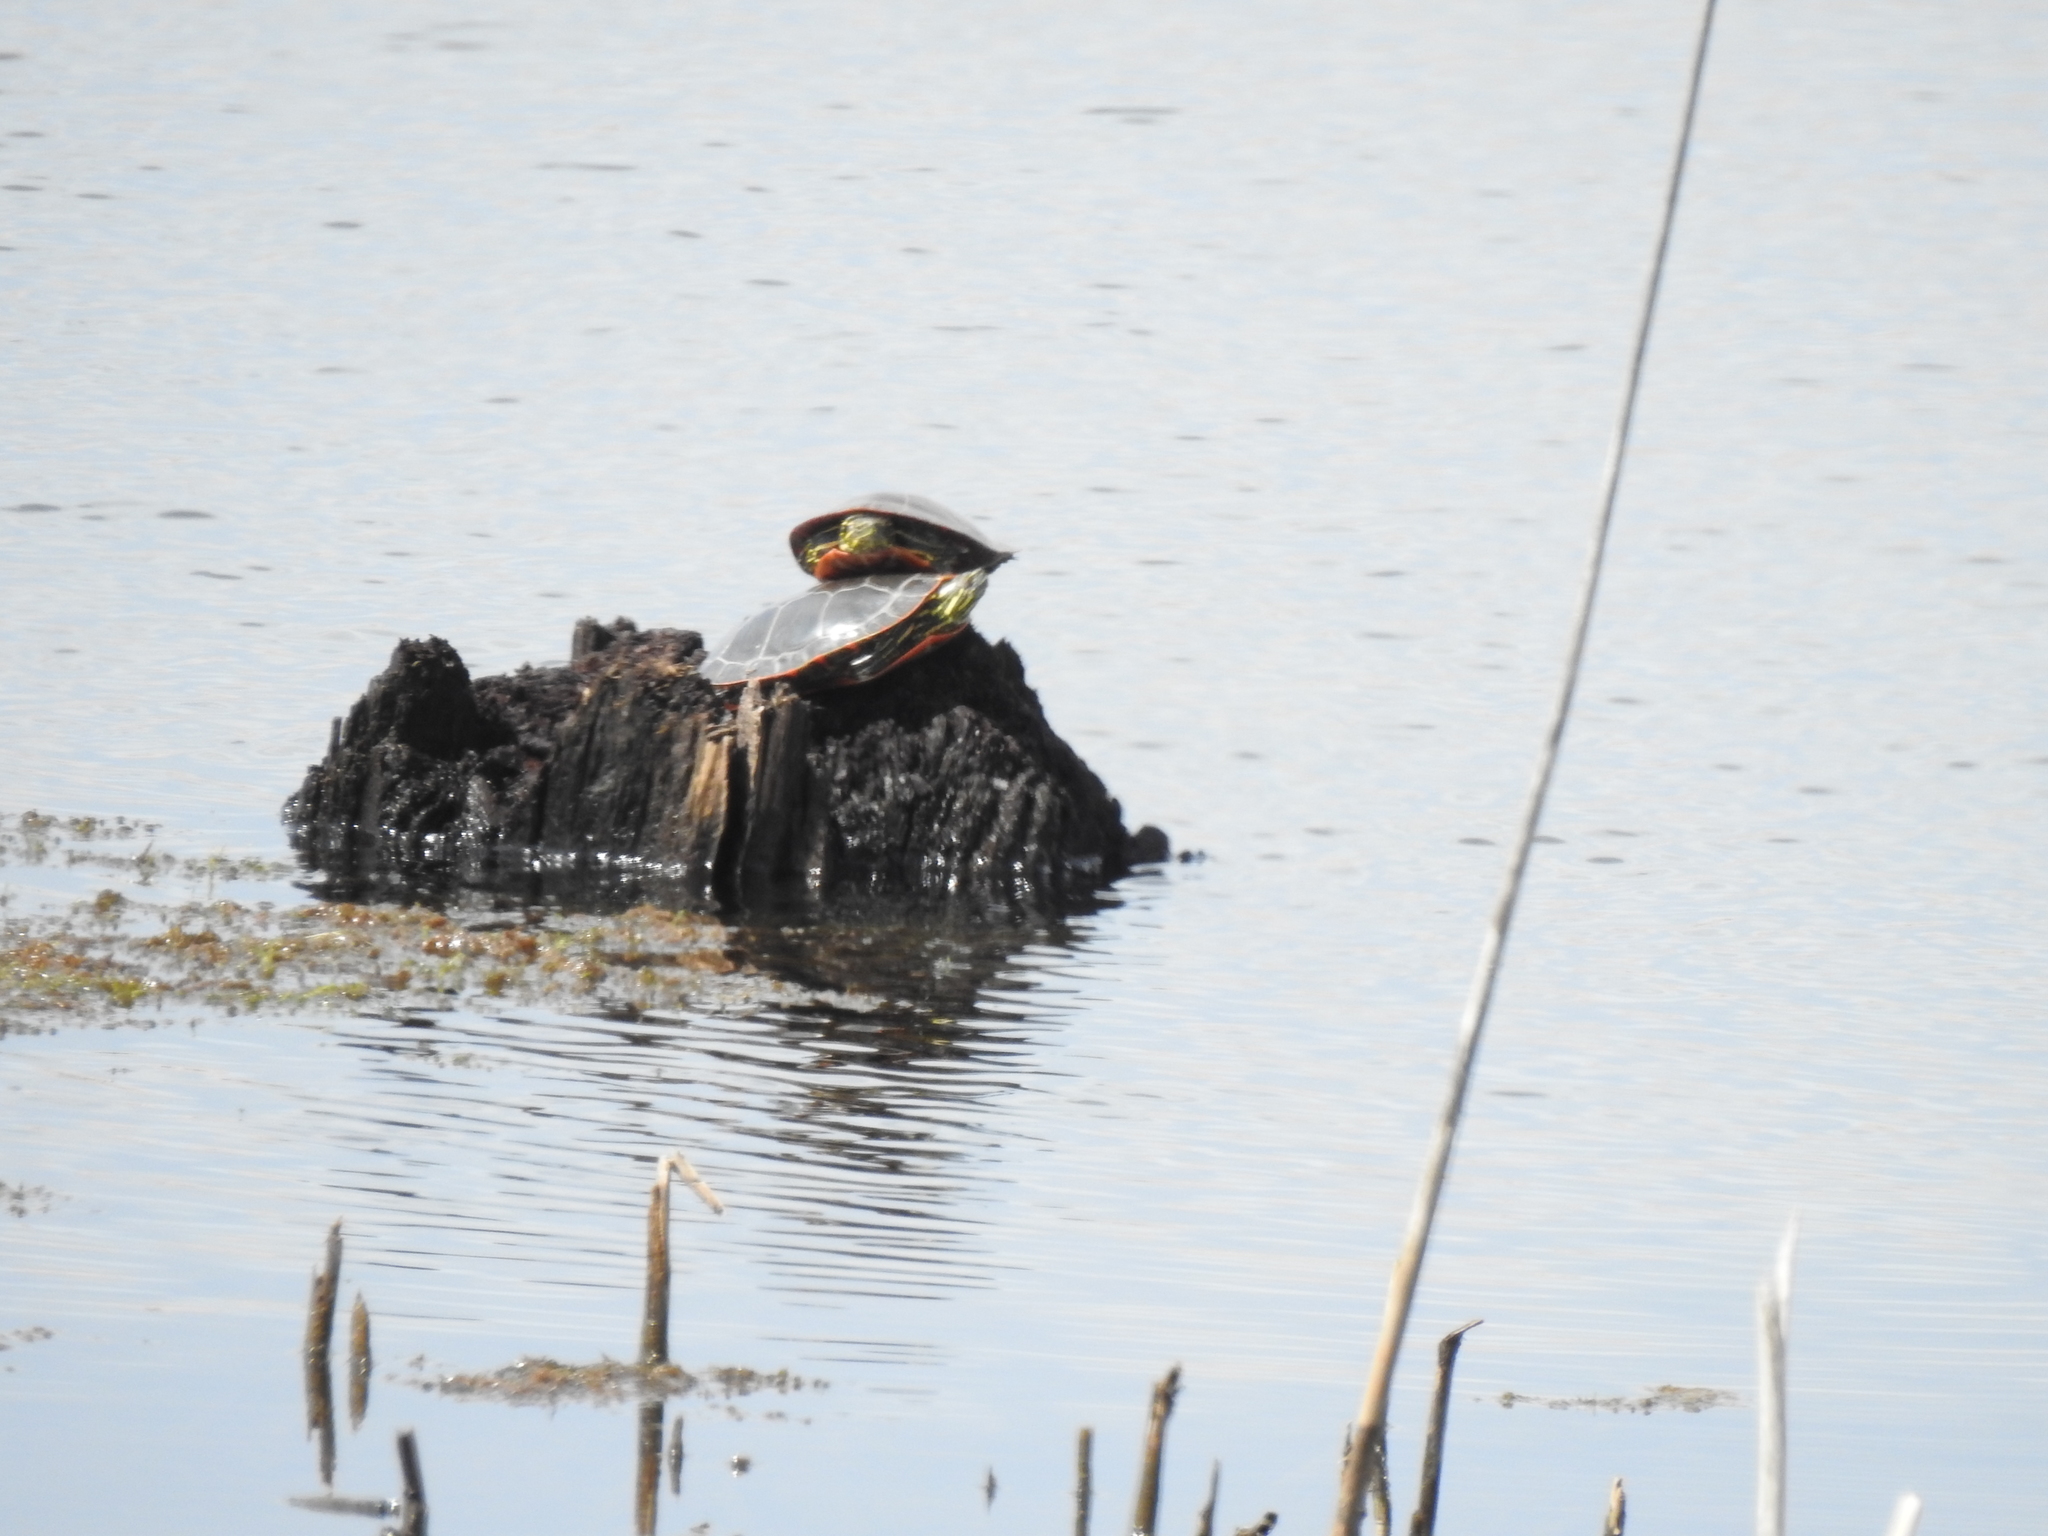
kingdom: Animalia
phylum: Chordata
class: Testudines
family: Emydidae
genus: Chrysemys
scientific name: Chrysemys picta
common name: Painted turtle
